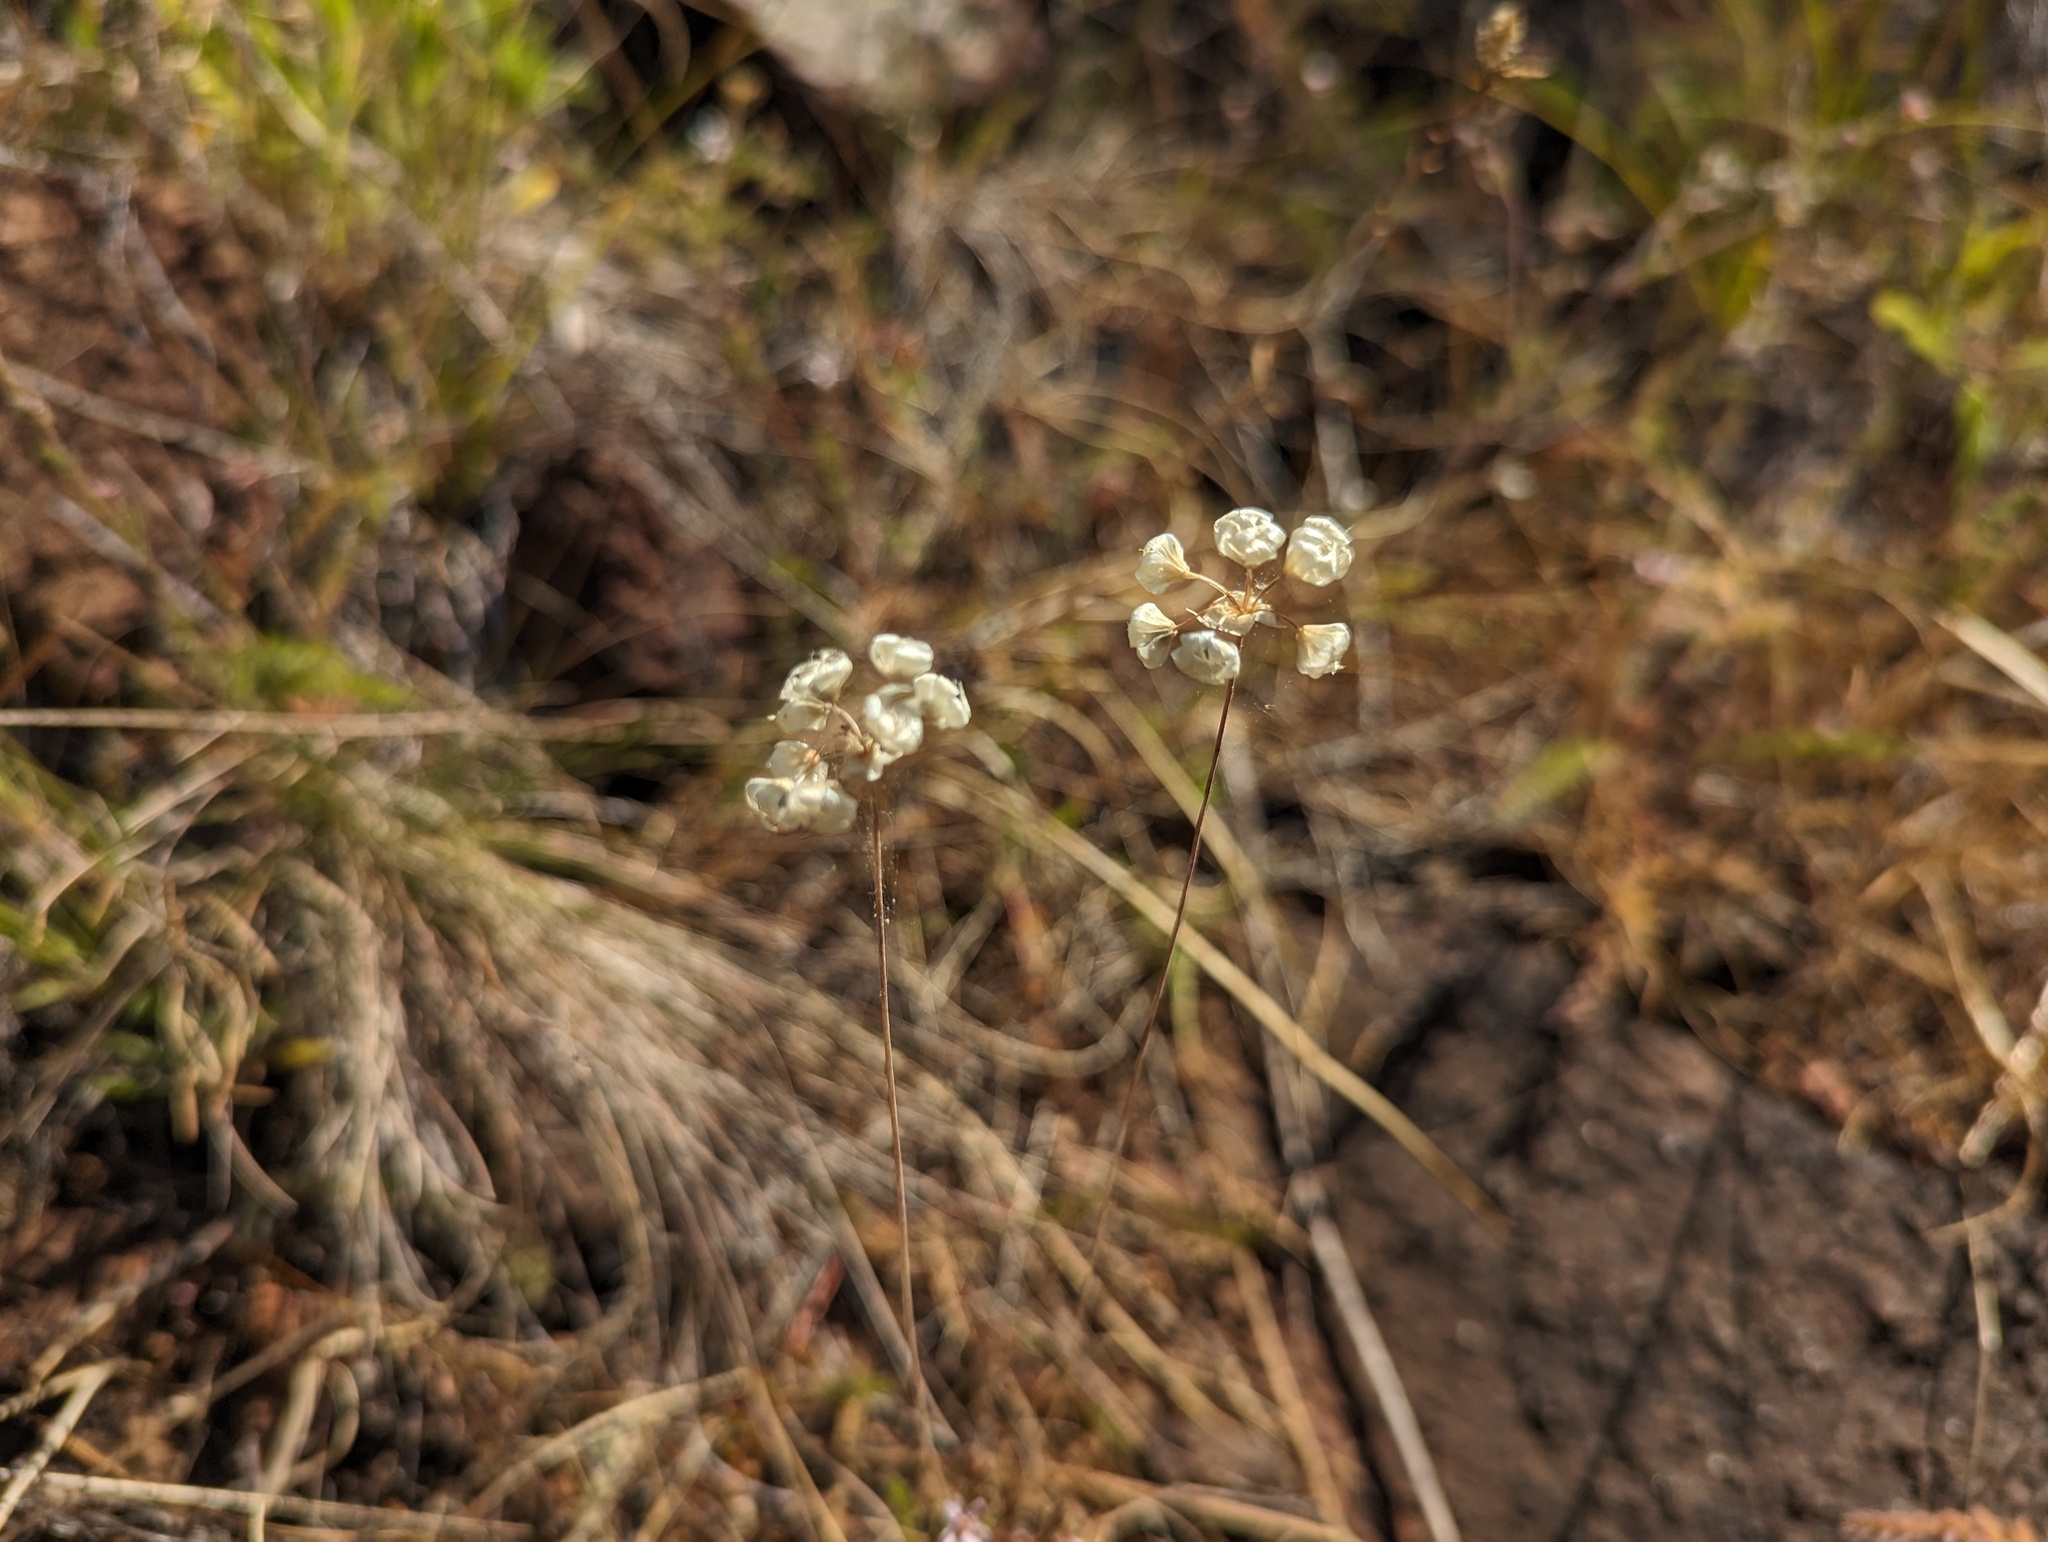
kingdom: Plantae
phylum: Tracheophyta
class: Liliopsida
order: Asparagales
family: Amaryllidaceae
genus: Allium
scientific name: Allium amplectens
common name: Narrow-leaved onion
